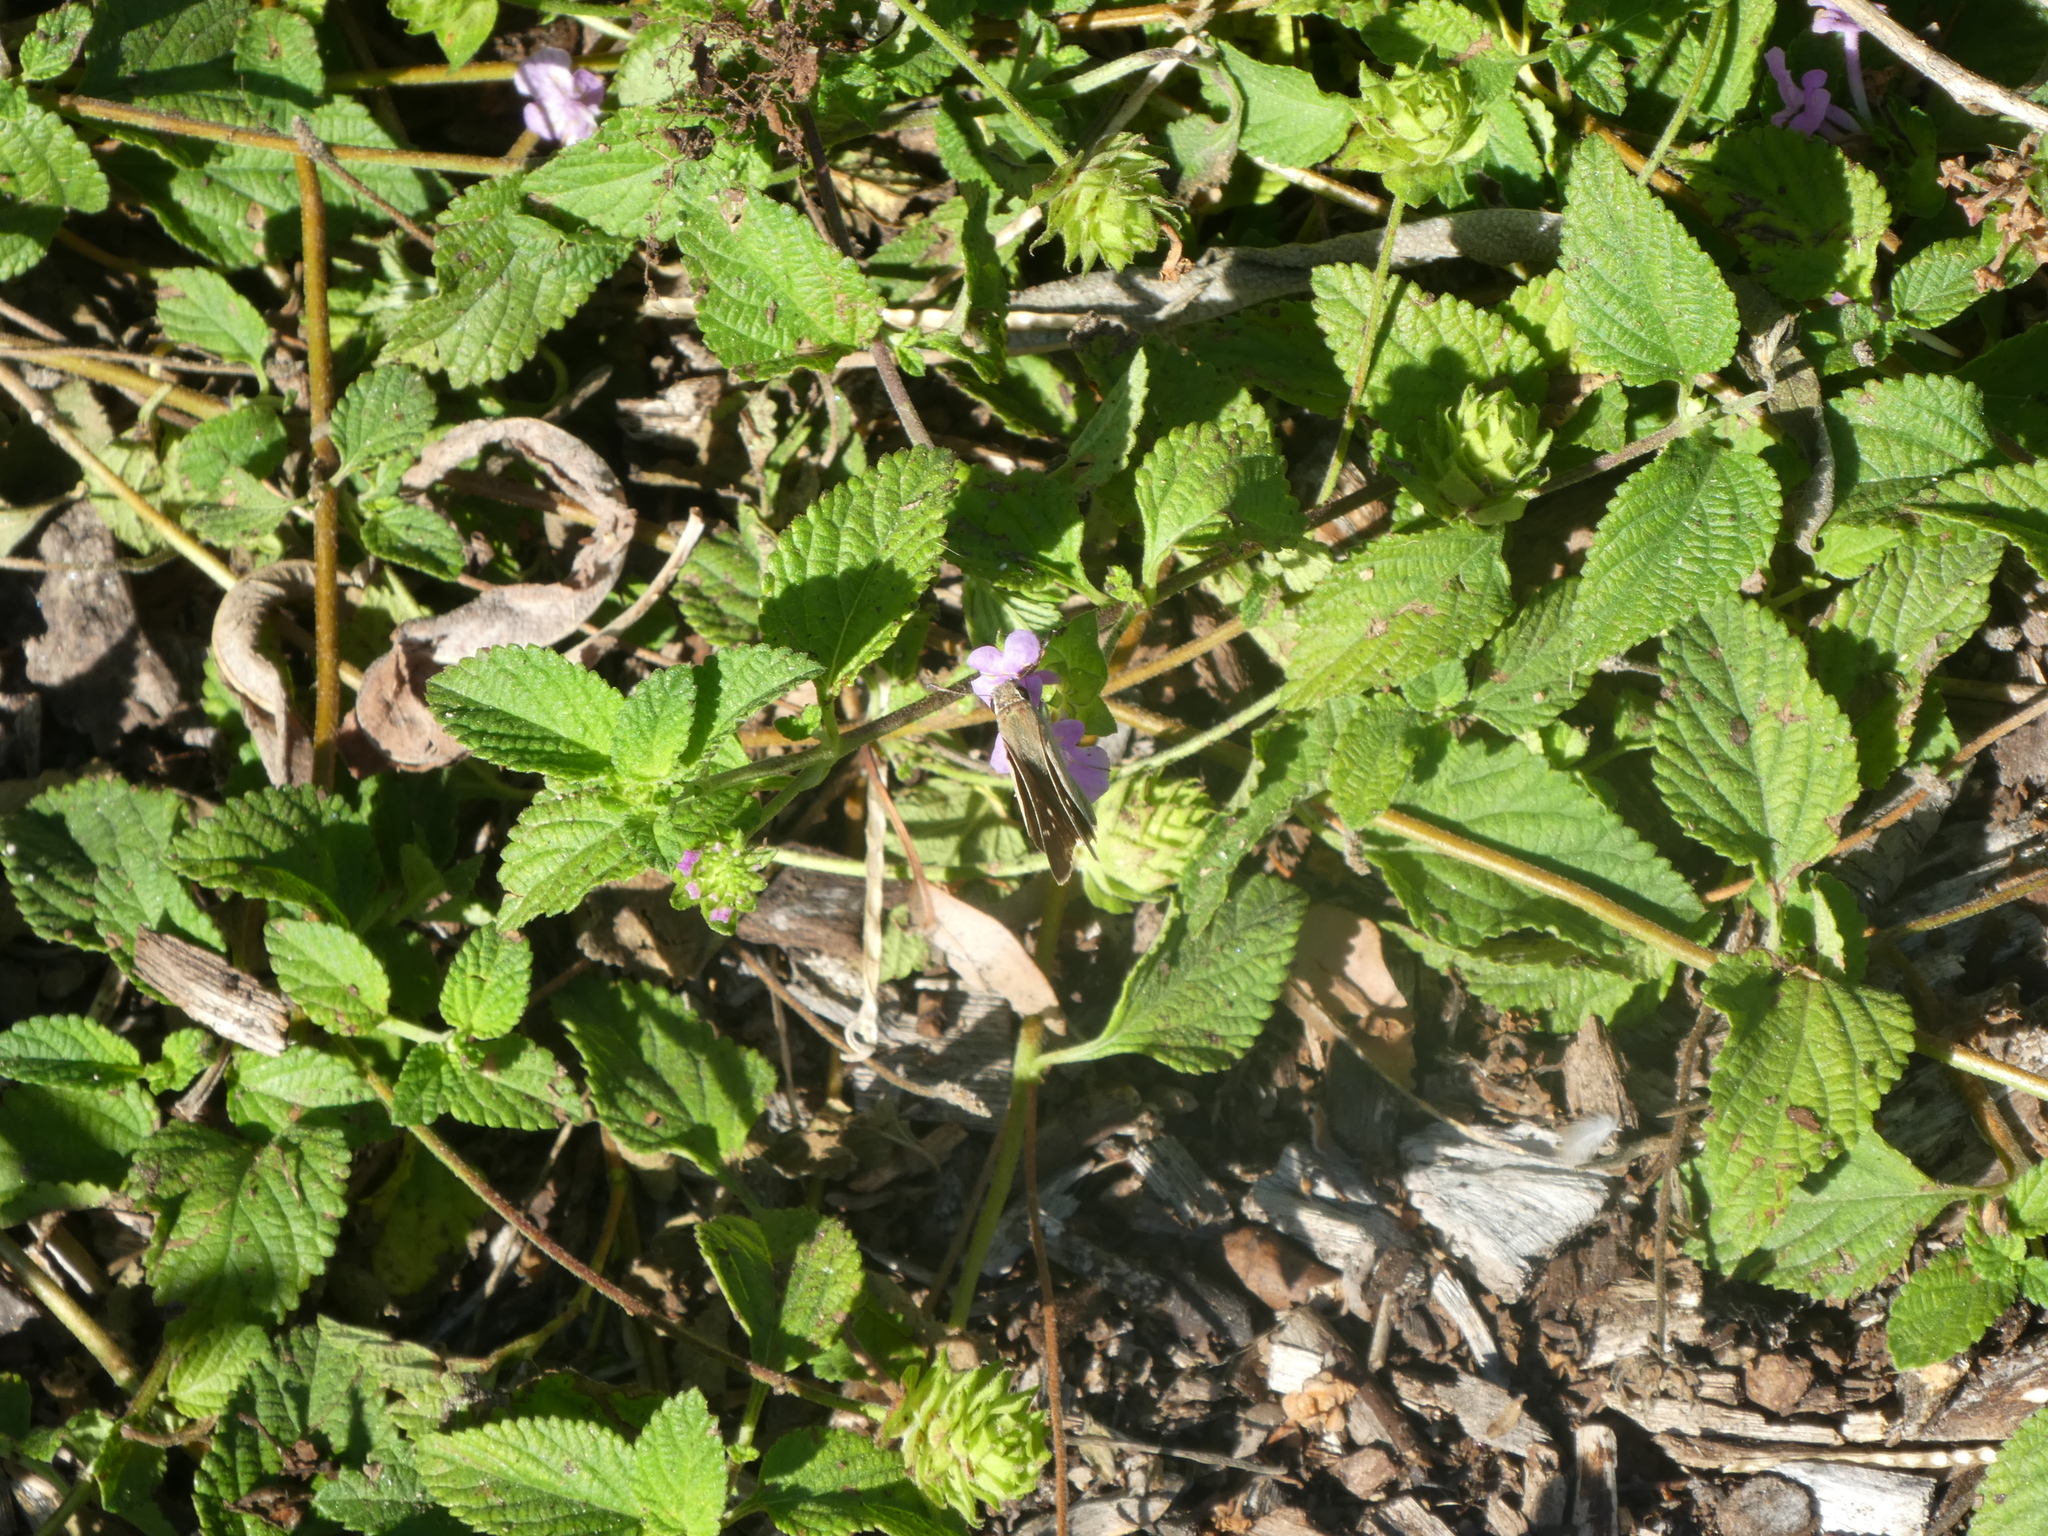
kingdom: Animalia
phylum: Arthropoda
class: Insecta
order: Lepidoptera
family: Hesperiidae
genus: Lerodea
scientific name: Lerodea eufala
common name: Eufala skipper
